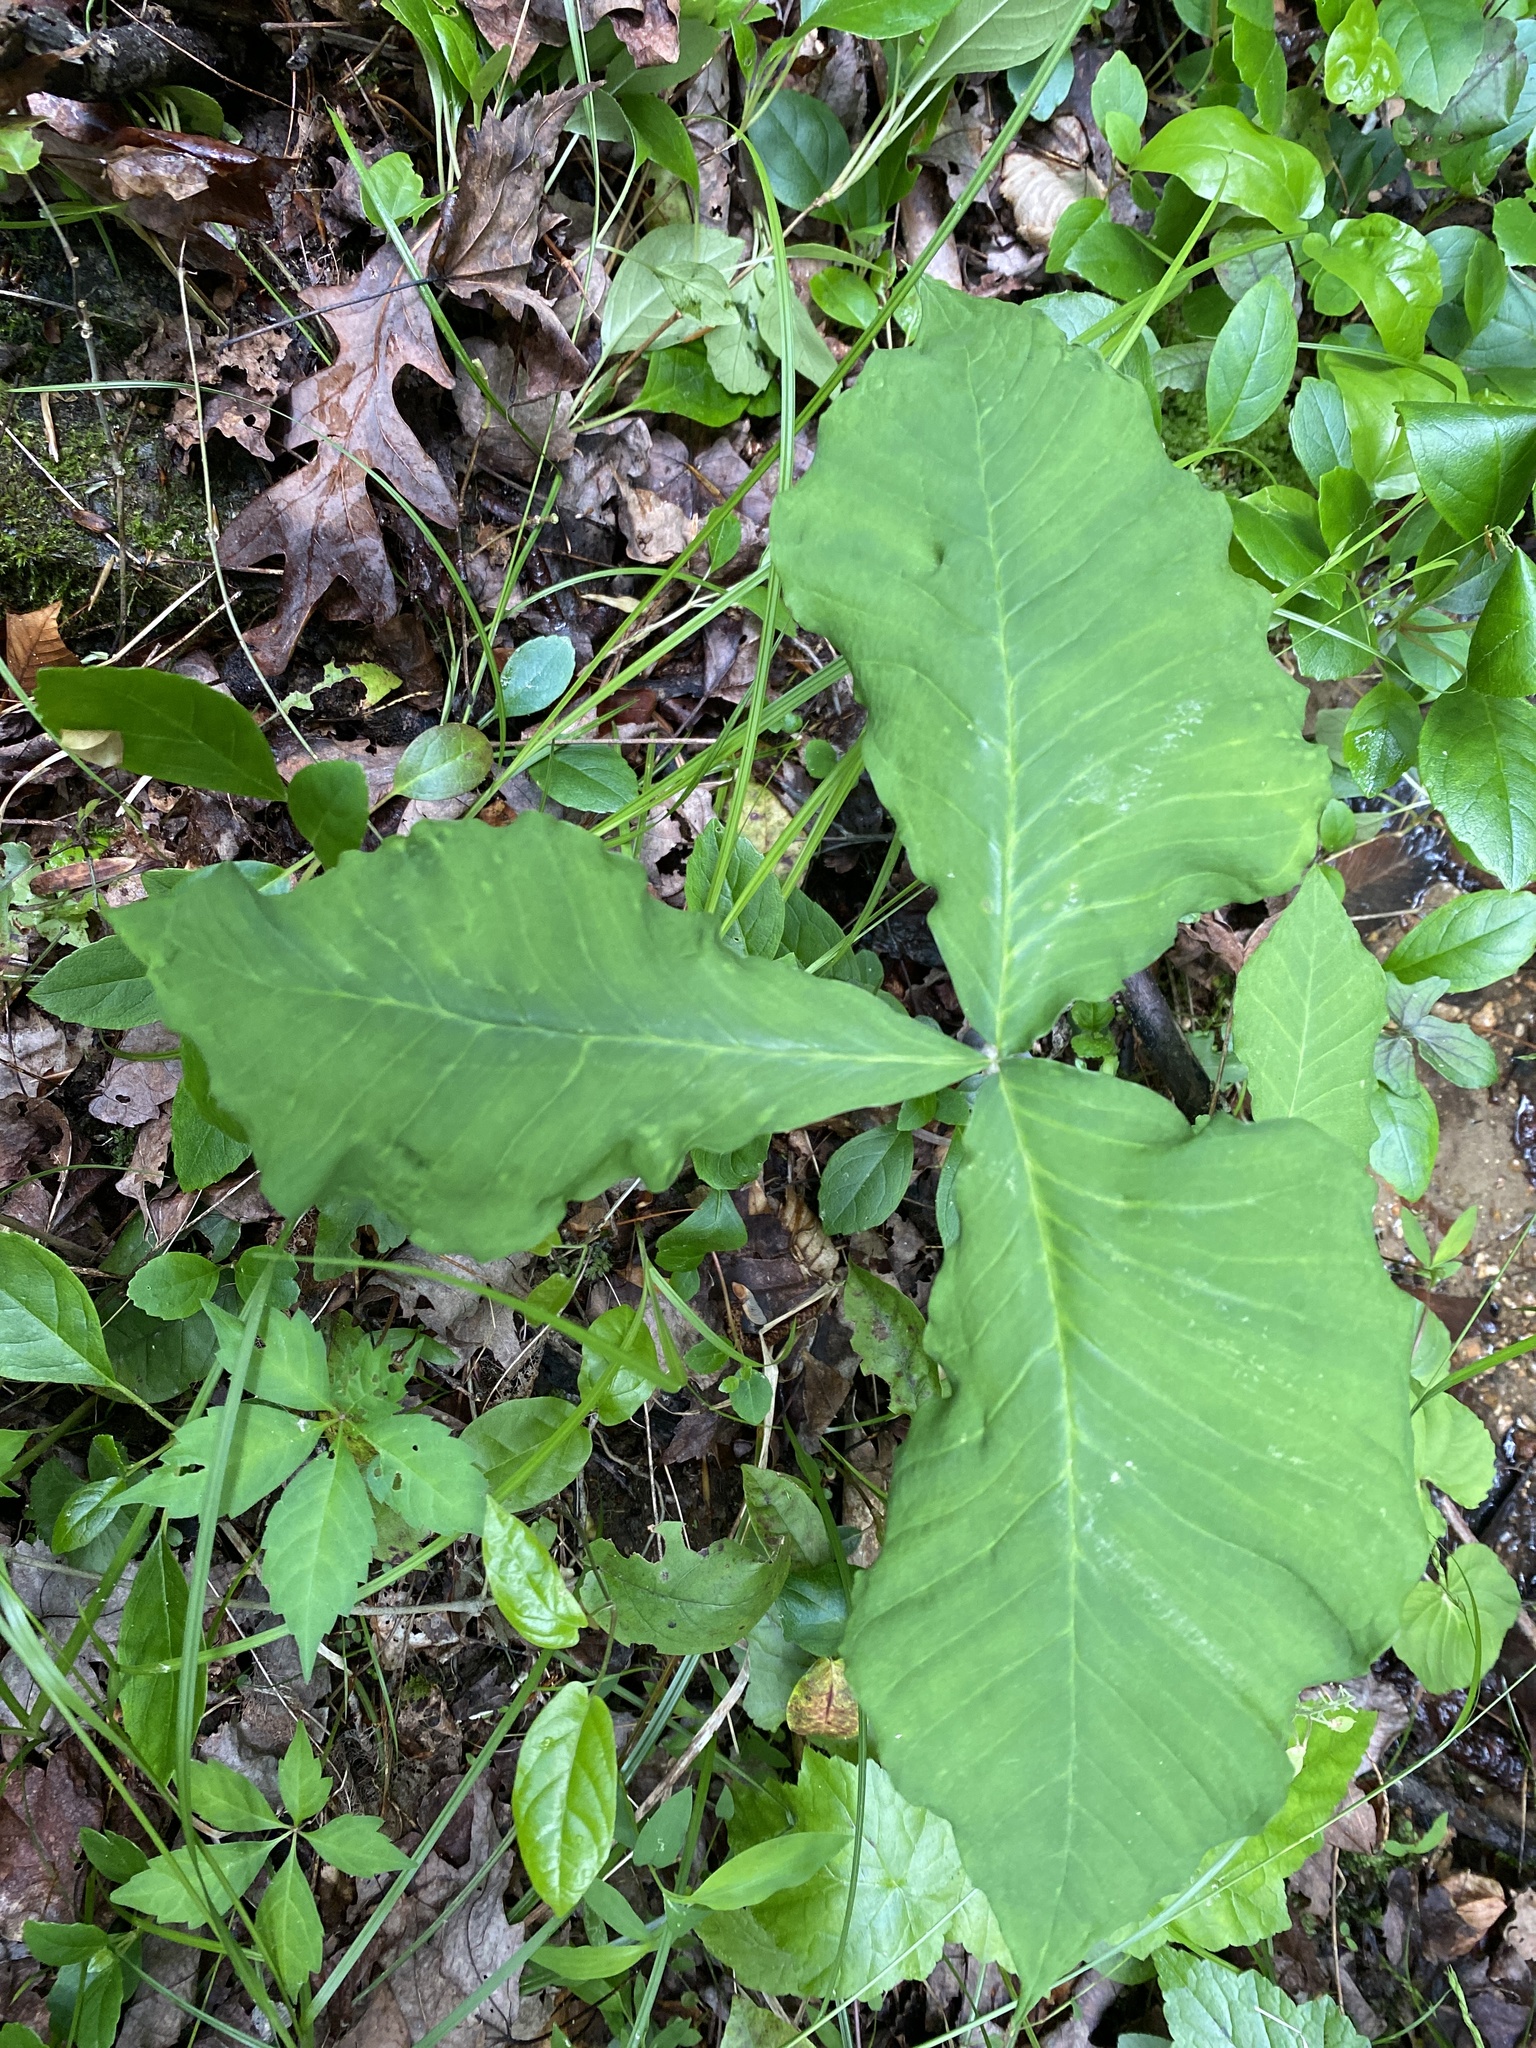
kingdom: Plantae
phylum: Tracheophyta
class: Liliopsida
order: Alismatales
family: Araceae
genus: Arisaema
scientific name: Arisaema triphyllum
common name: Jack-in-the-pulpit
